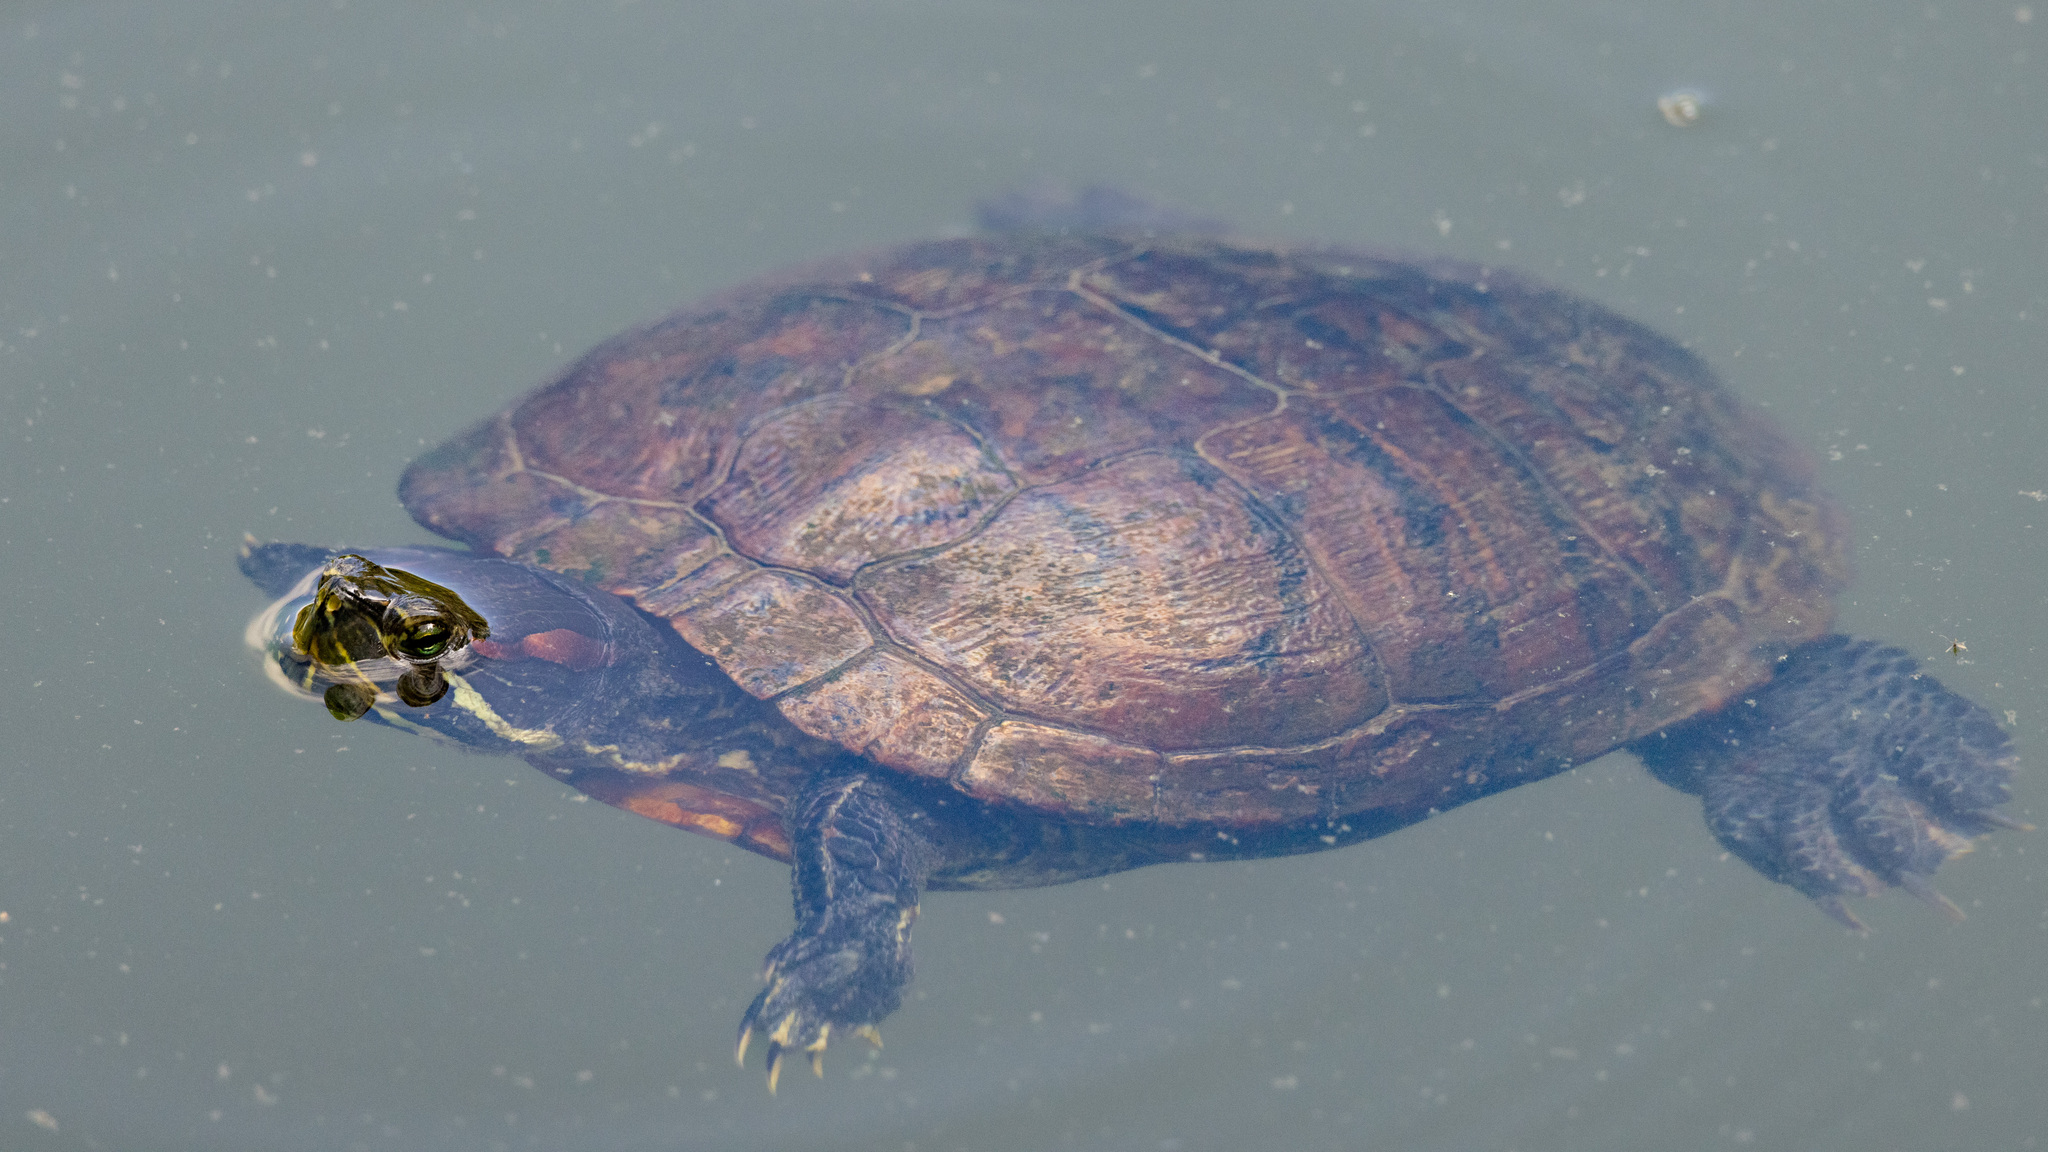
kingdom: Animalia
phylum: Chordata
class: Testudines
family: Emydidae
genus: Trachemys
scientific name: Trachemys scripta
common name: Slider
